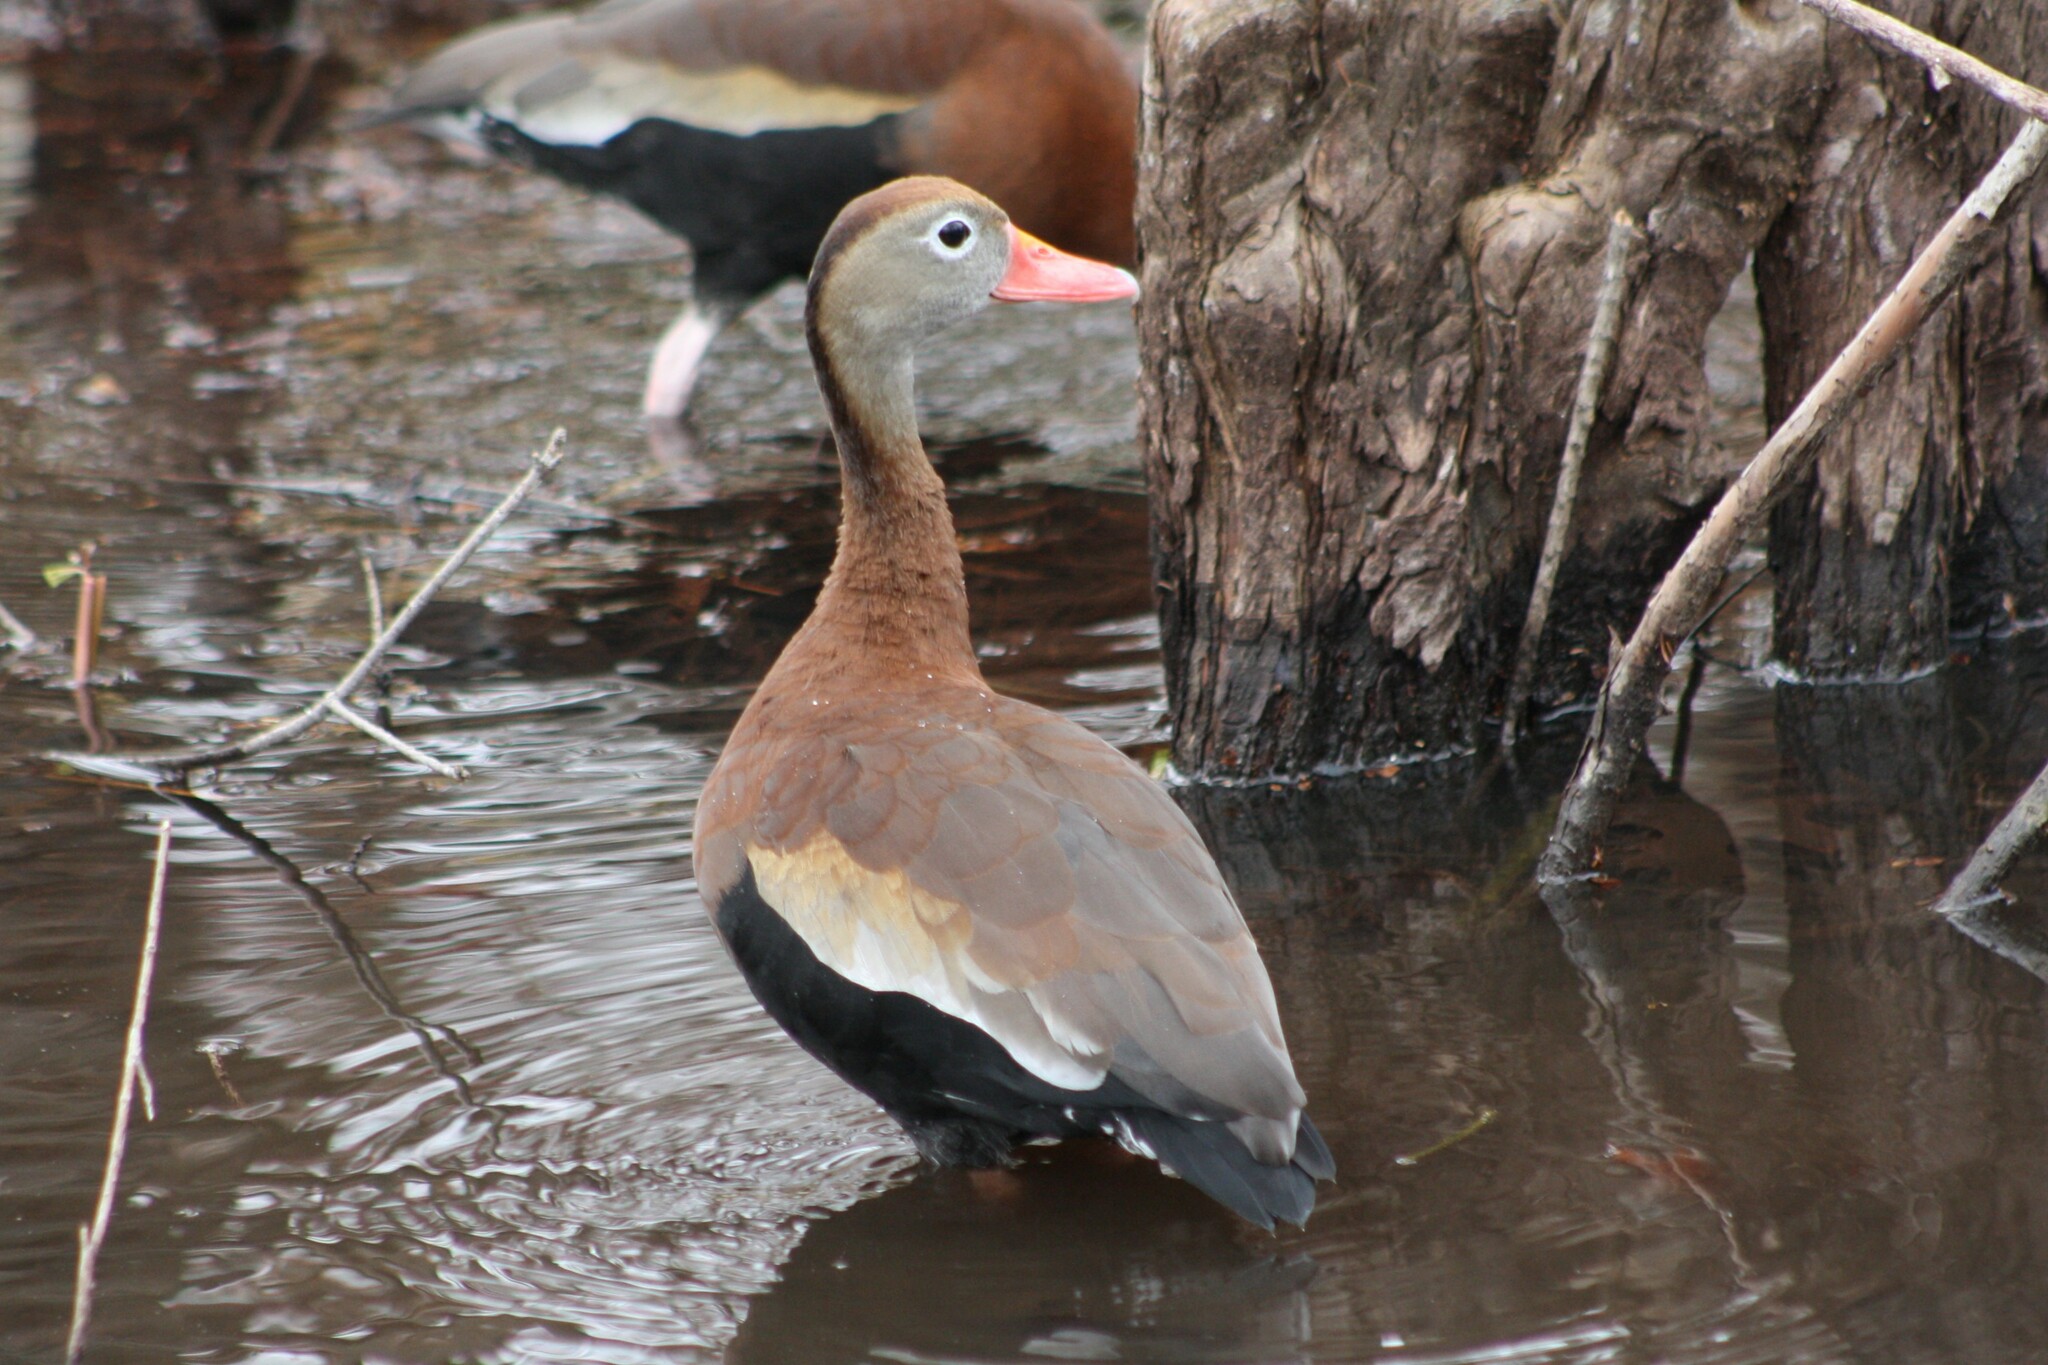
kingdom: Animalia
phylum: Chordata
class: Aves
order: Anseriformes
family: Anatidae
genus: Dendrocygna
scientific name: Dendrocygna autumnalis
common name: Black-bellied whistling duck
